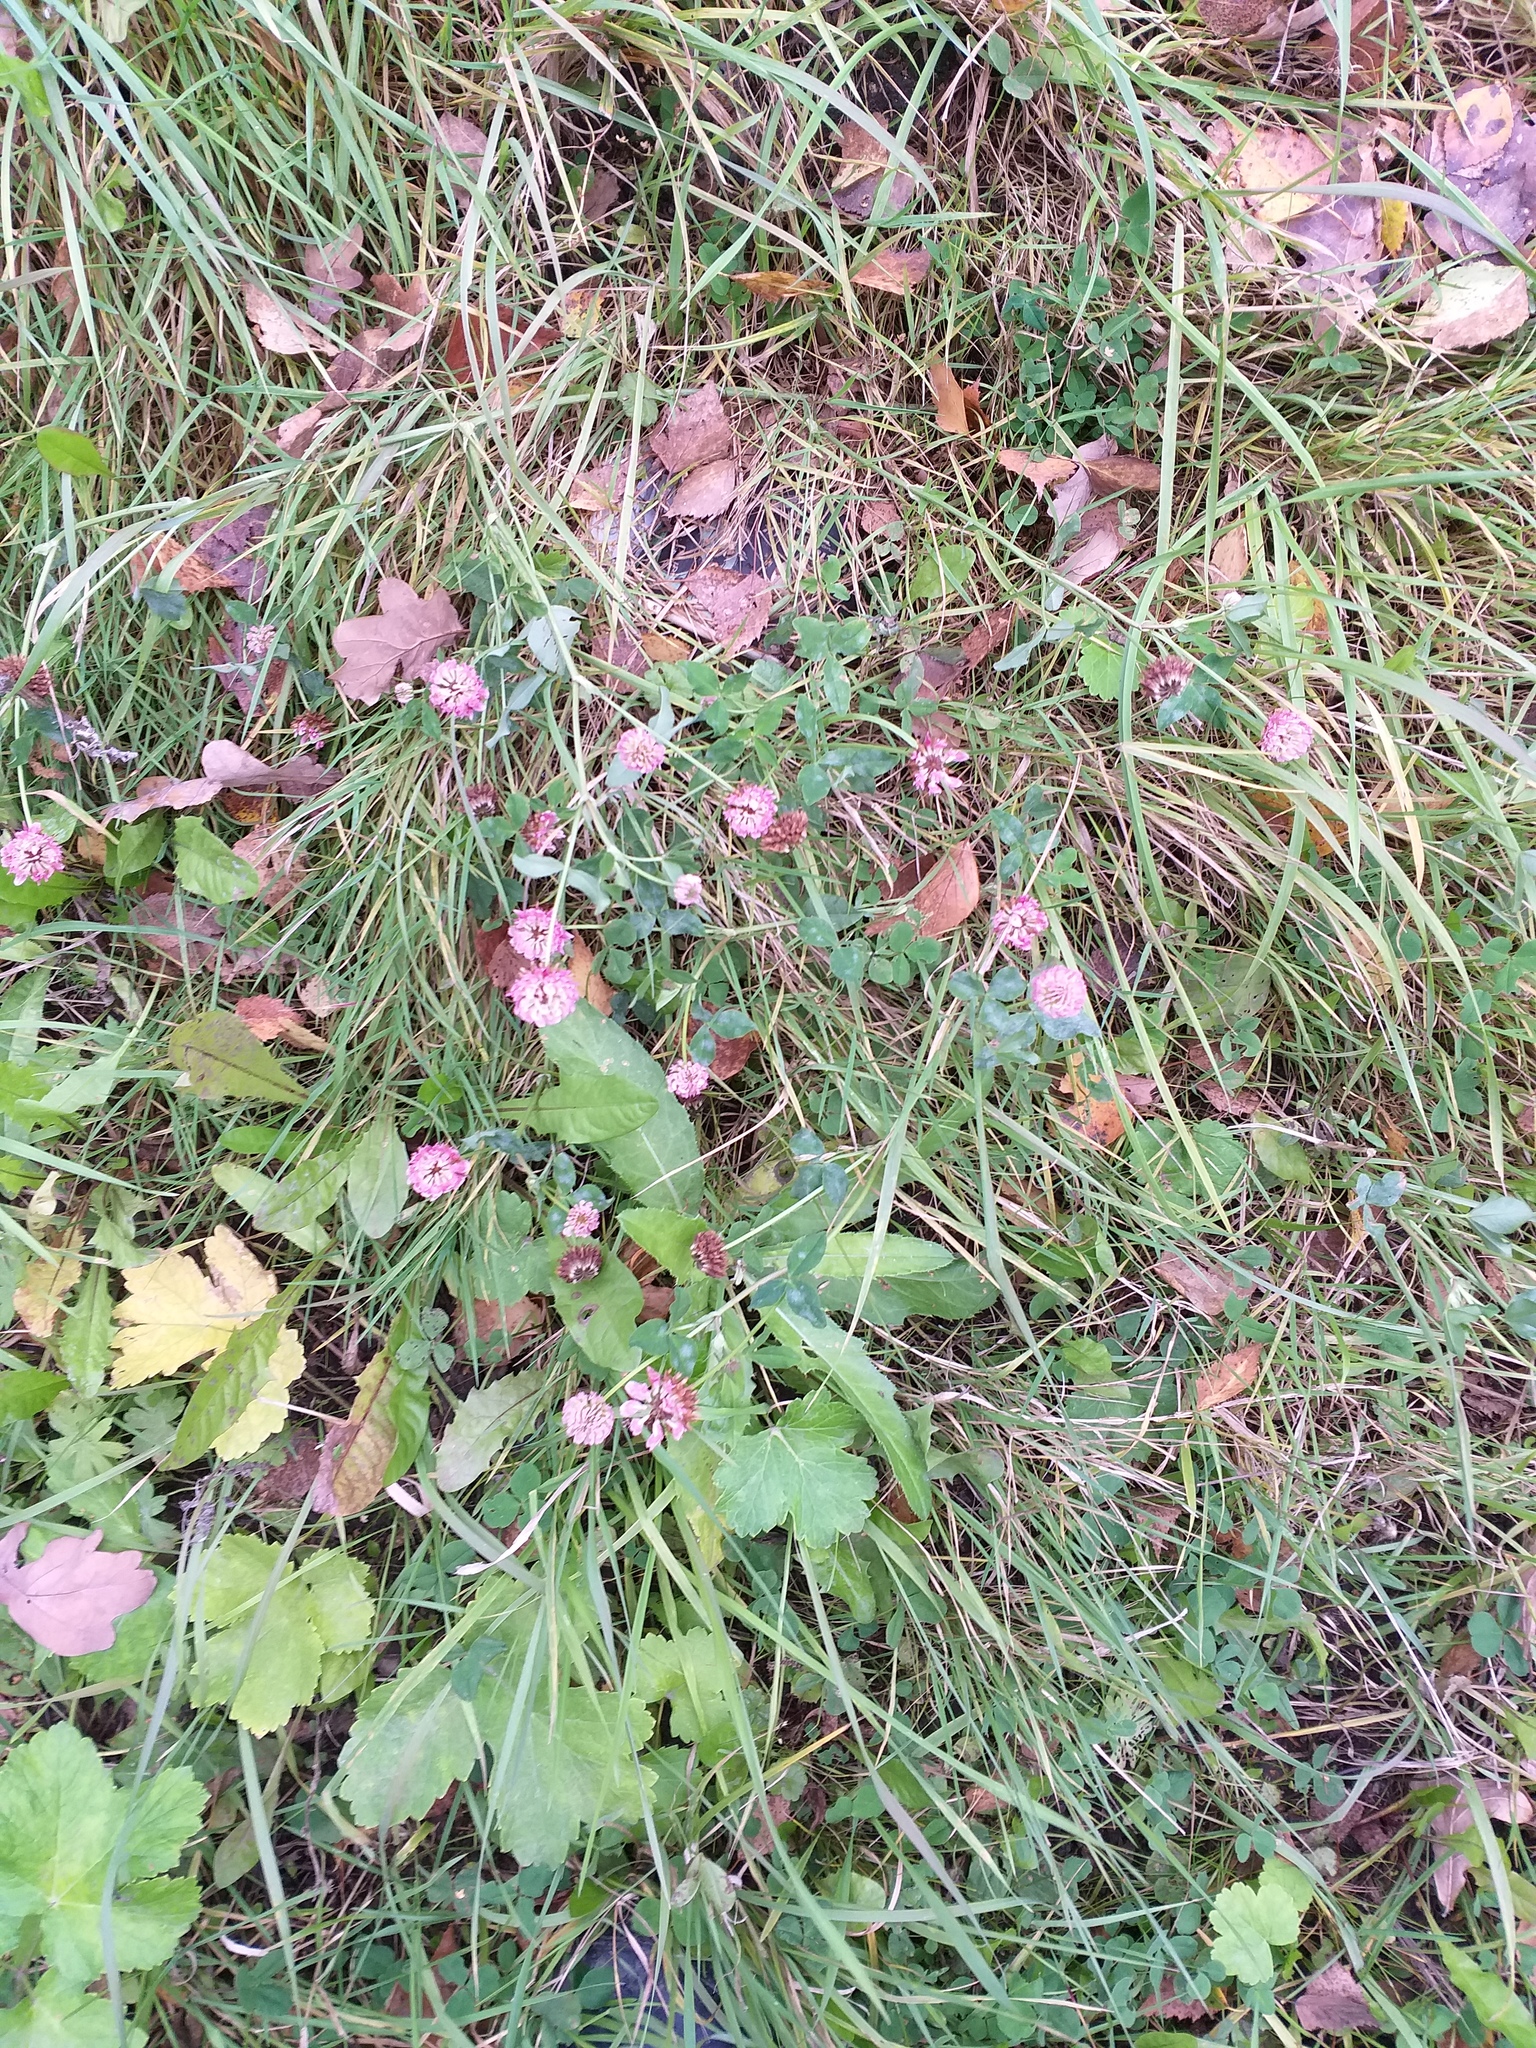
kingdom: Plantae
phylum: Tracheophyta
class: Magnoliopsida
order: Fabales
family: Fabaceae
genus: Trifolium
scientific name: Trifolium hybridum
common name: Alsike clover
